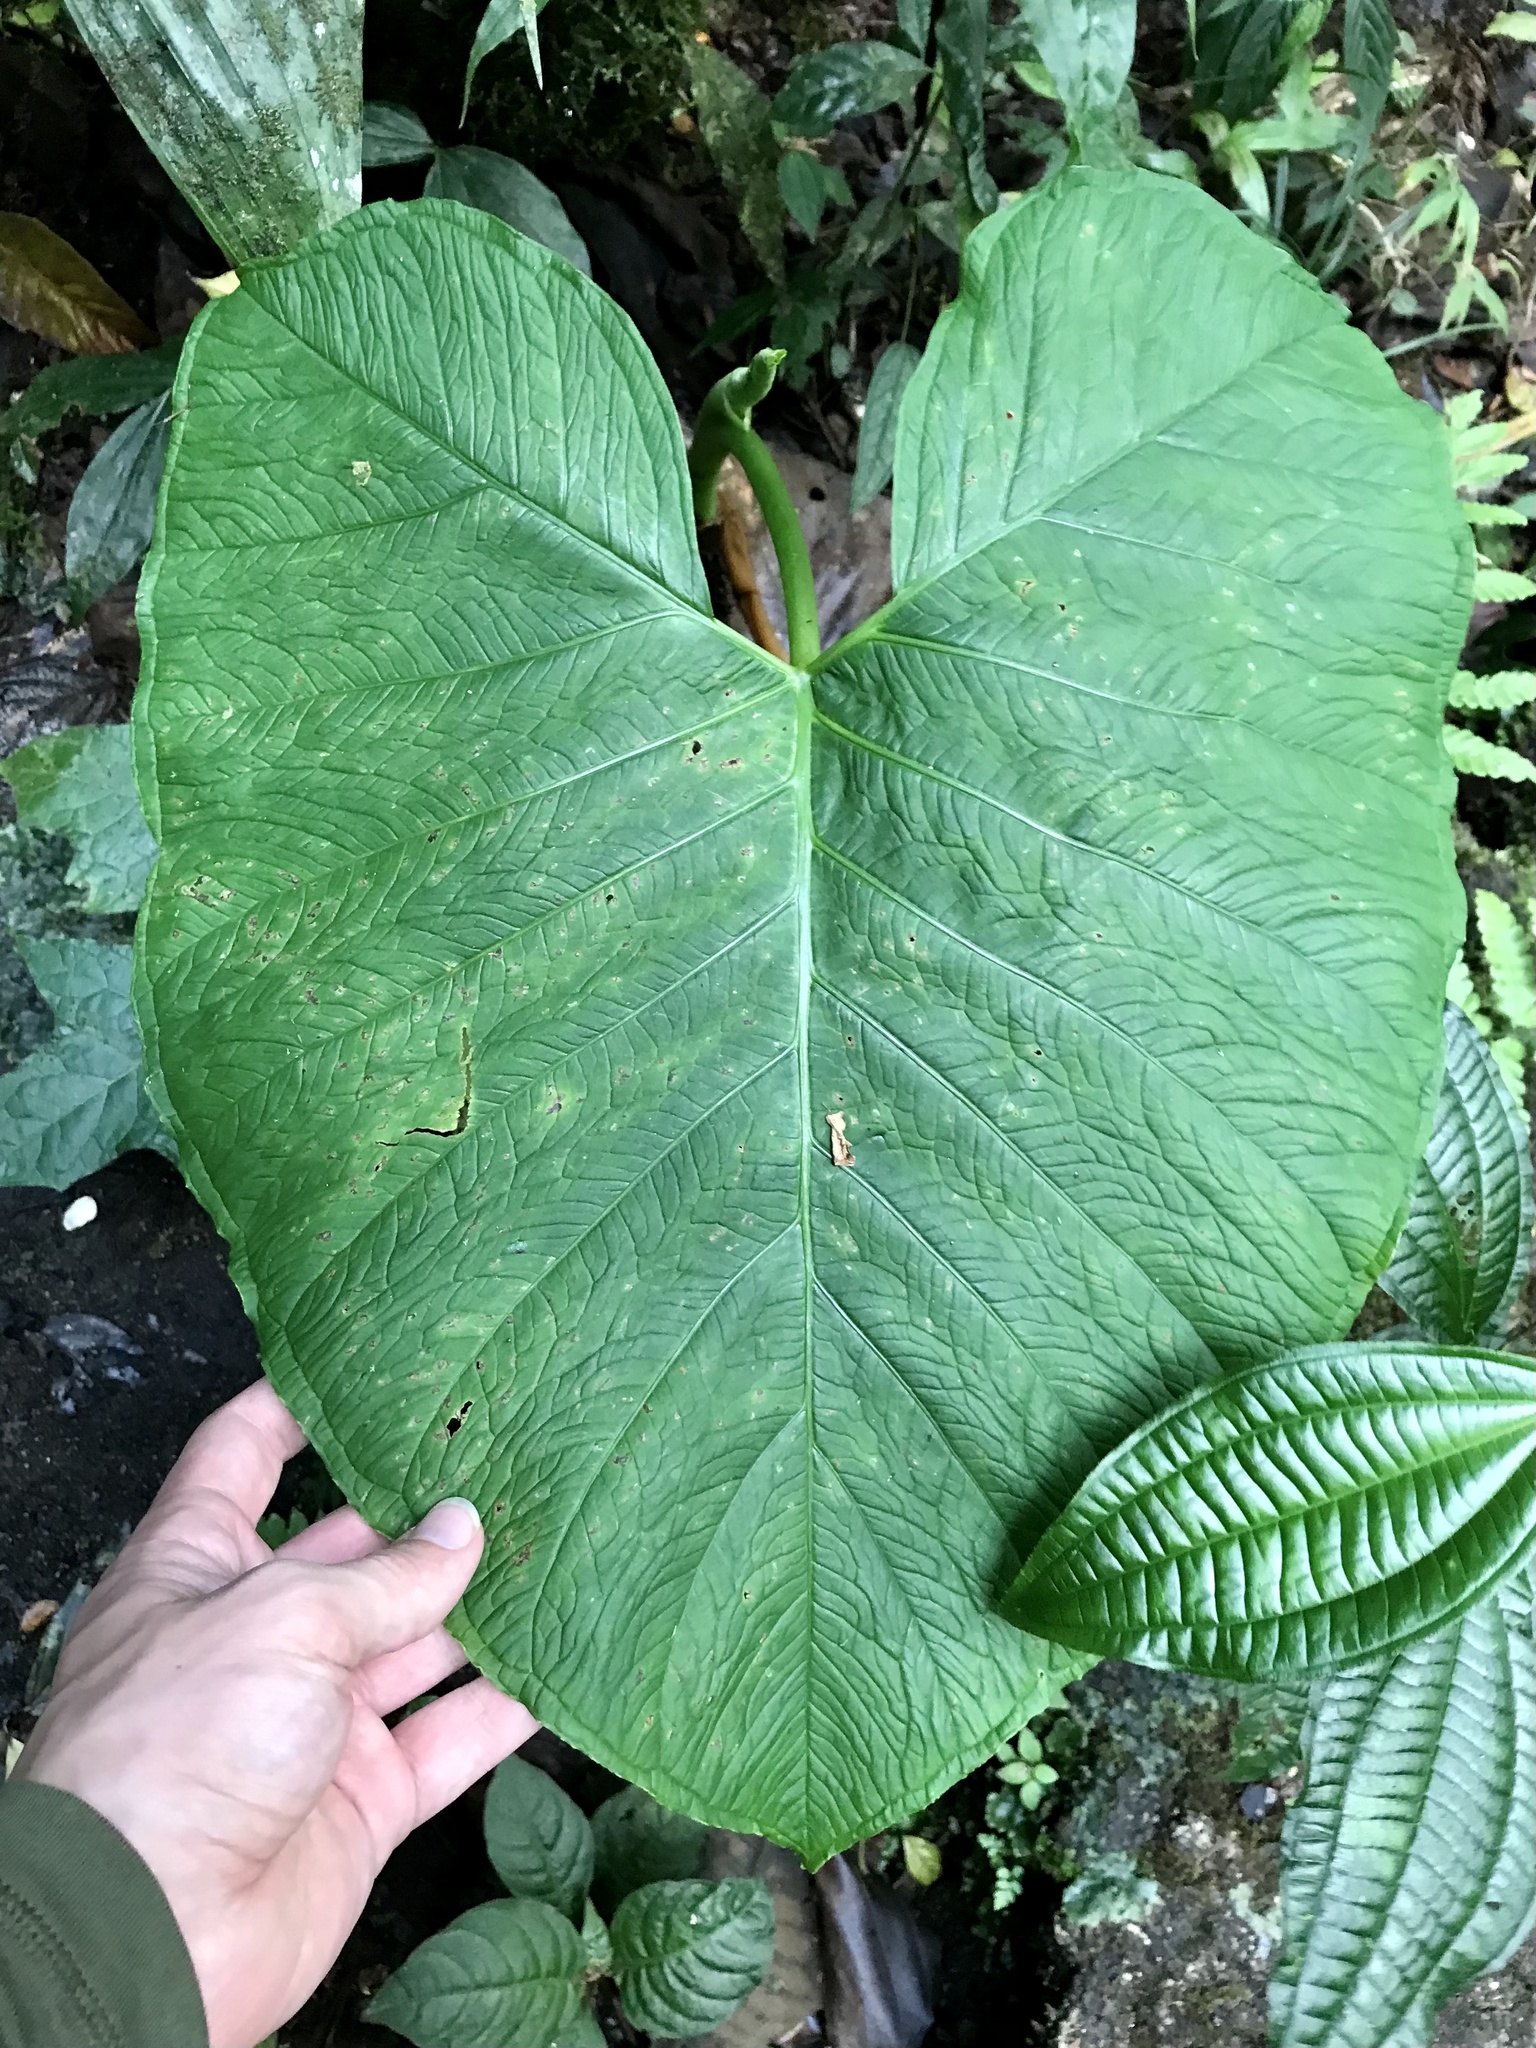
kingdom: Plantae
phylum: Tracheophyta
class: Liliopsida
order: Alismatales
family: Araceae
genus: Xanthosoma
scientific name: Xanthosoma undipes
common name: Tall elephant's ear
